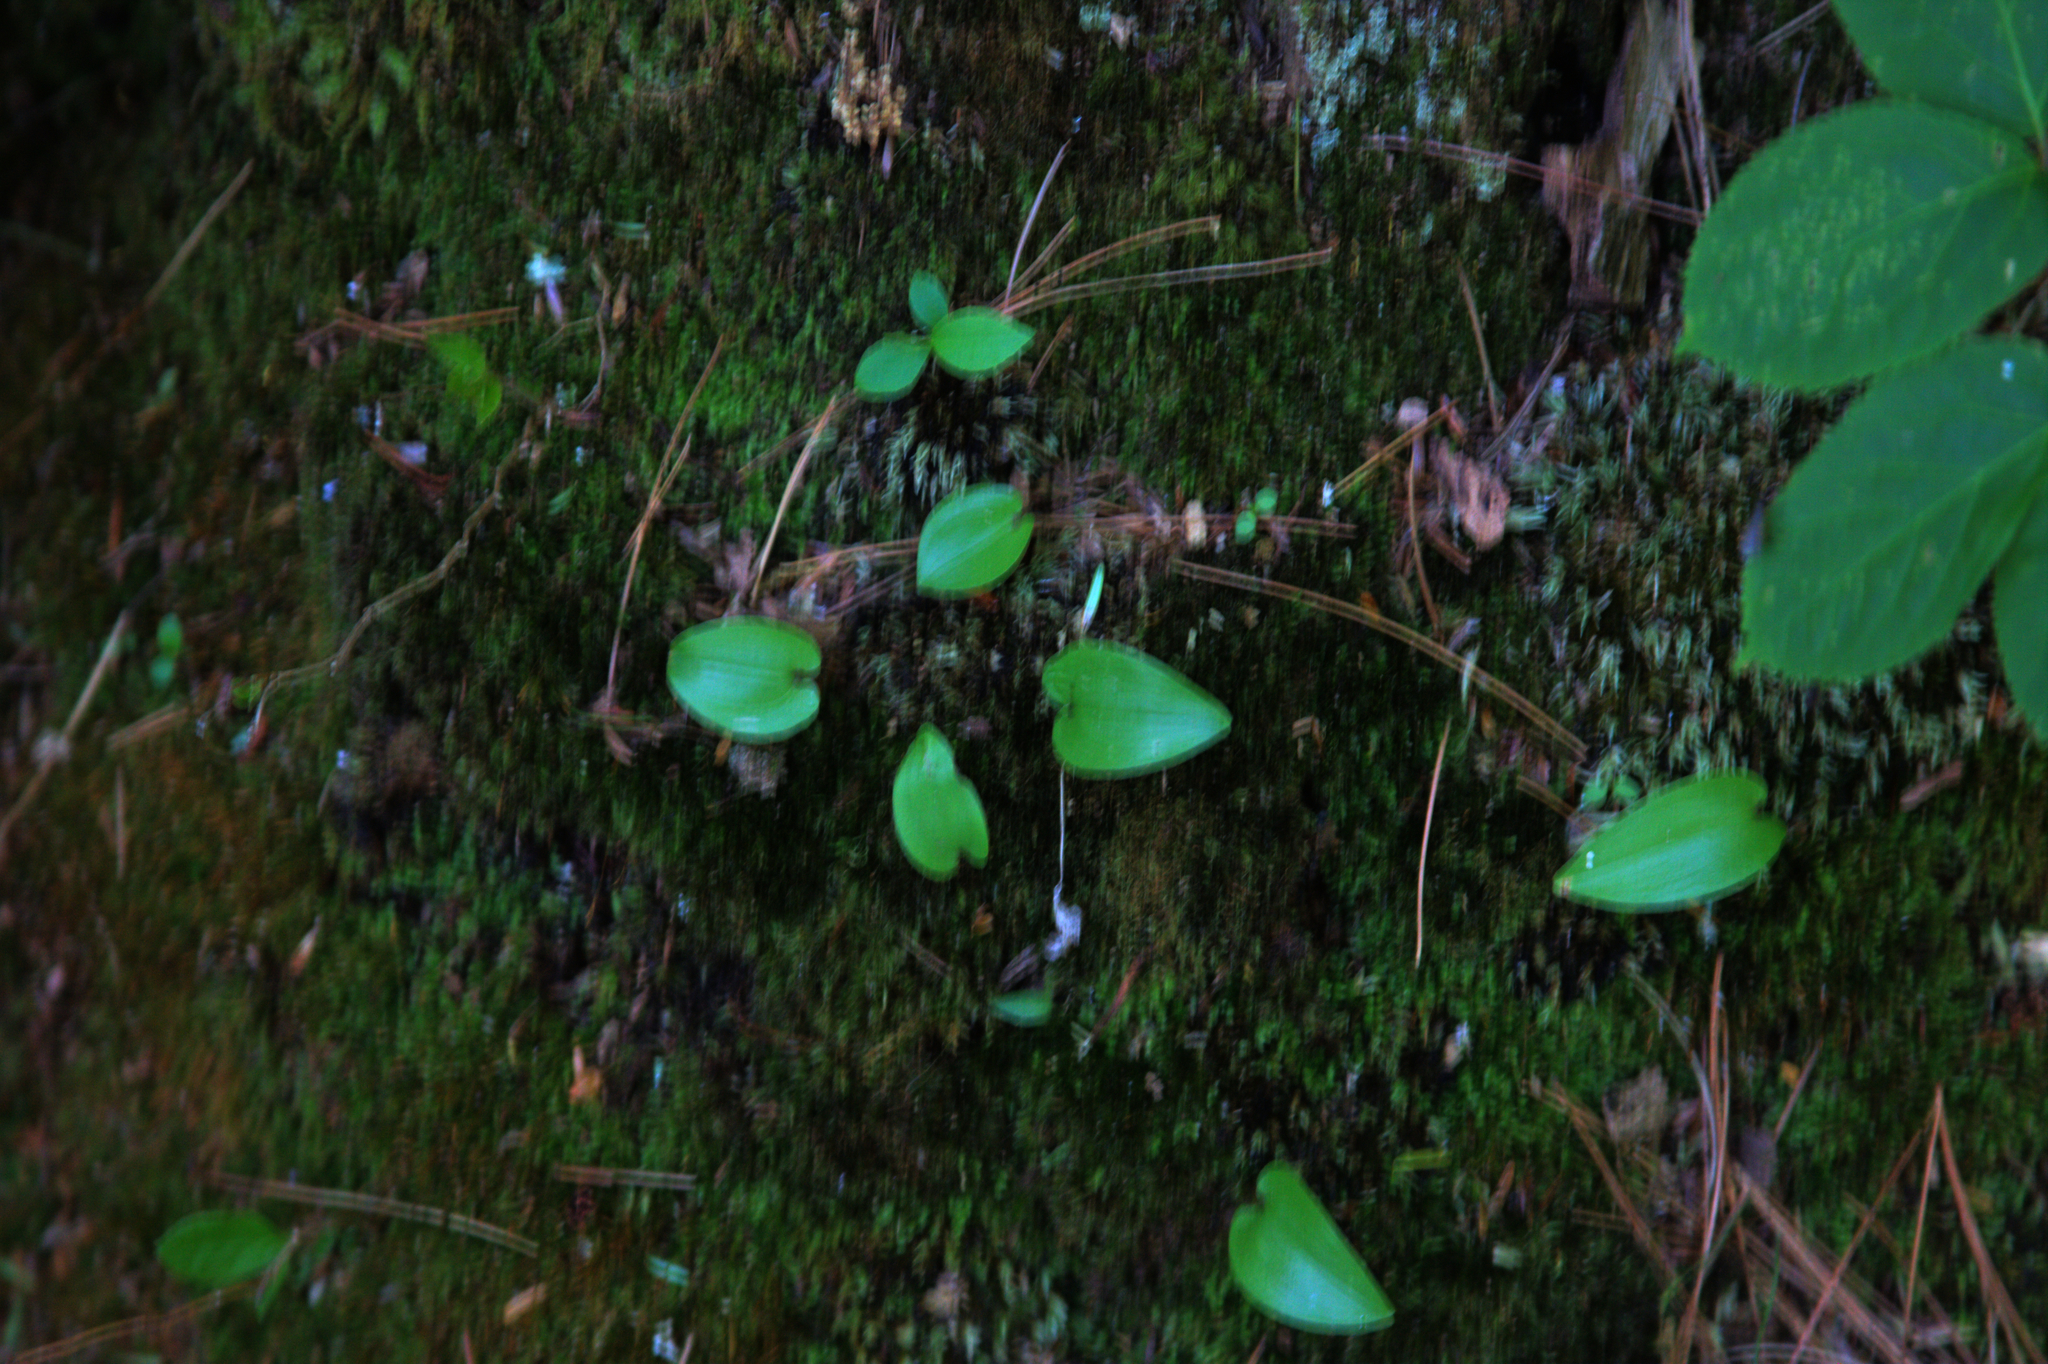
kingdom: Plantae
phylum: Tracheophyta
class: Liliopsida
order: Asparagales
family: Asparagaceae
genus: Maianthemum
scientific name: Maianthemum canadense
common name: False lily-of-the-valley
